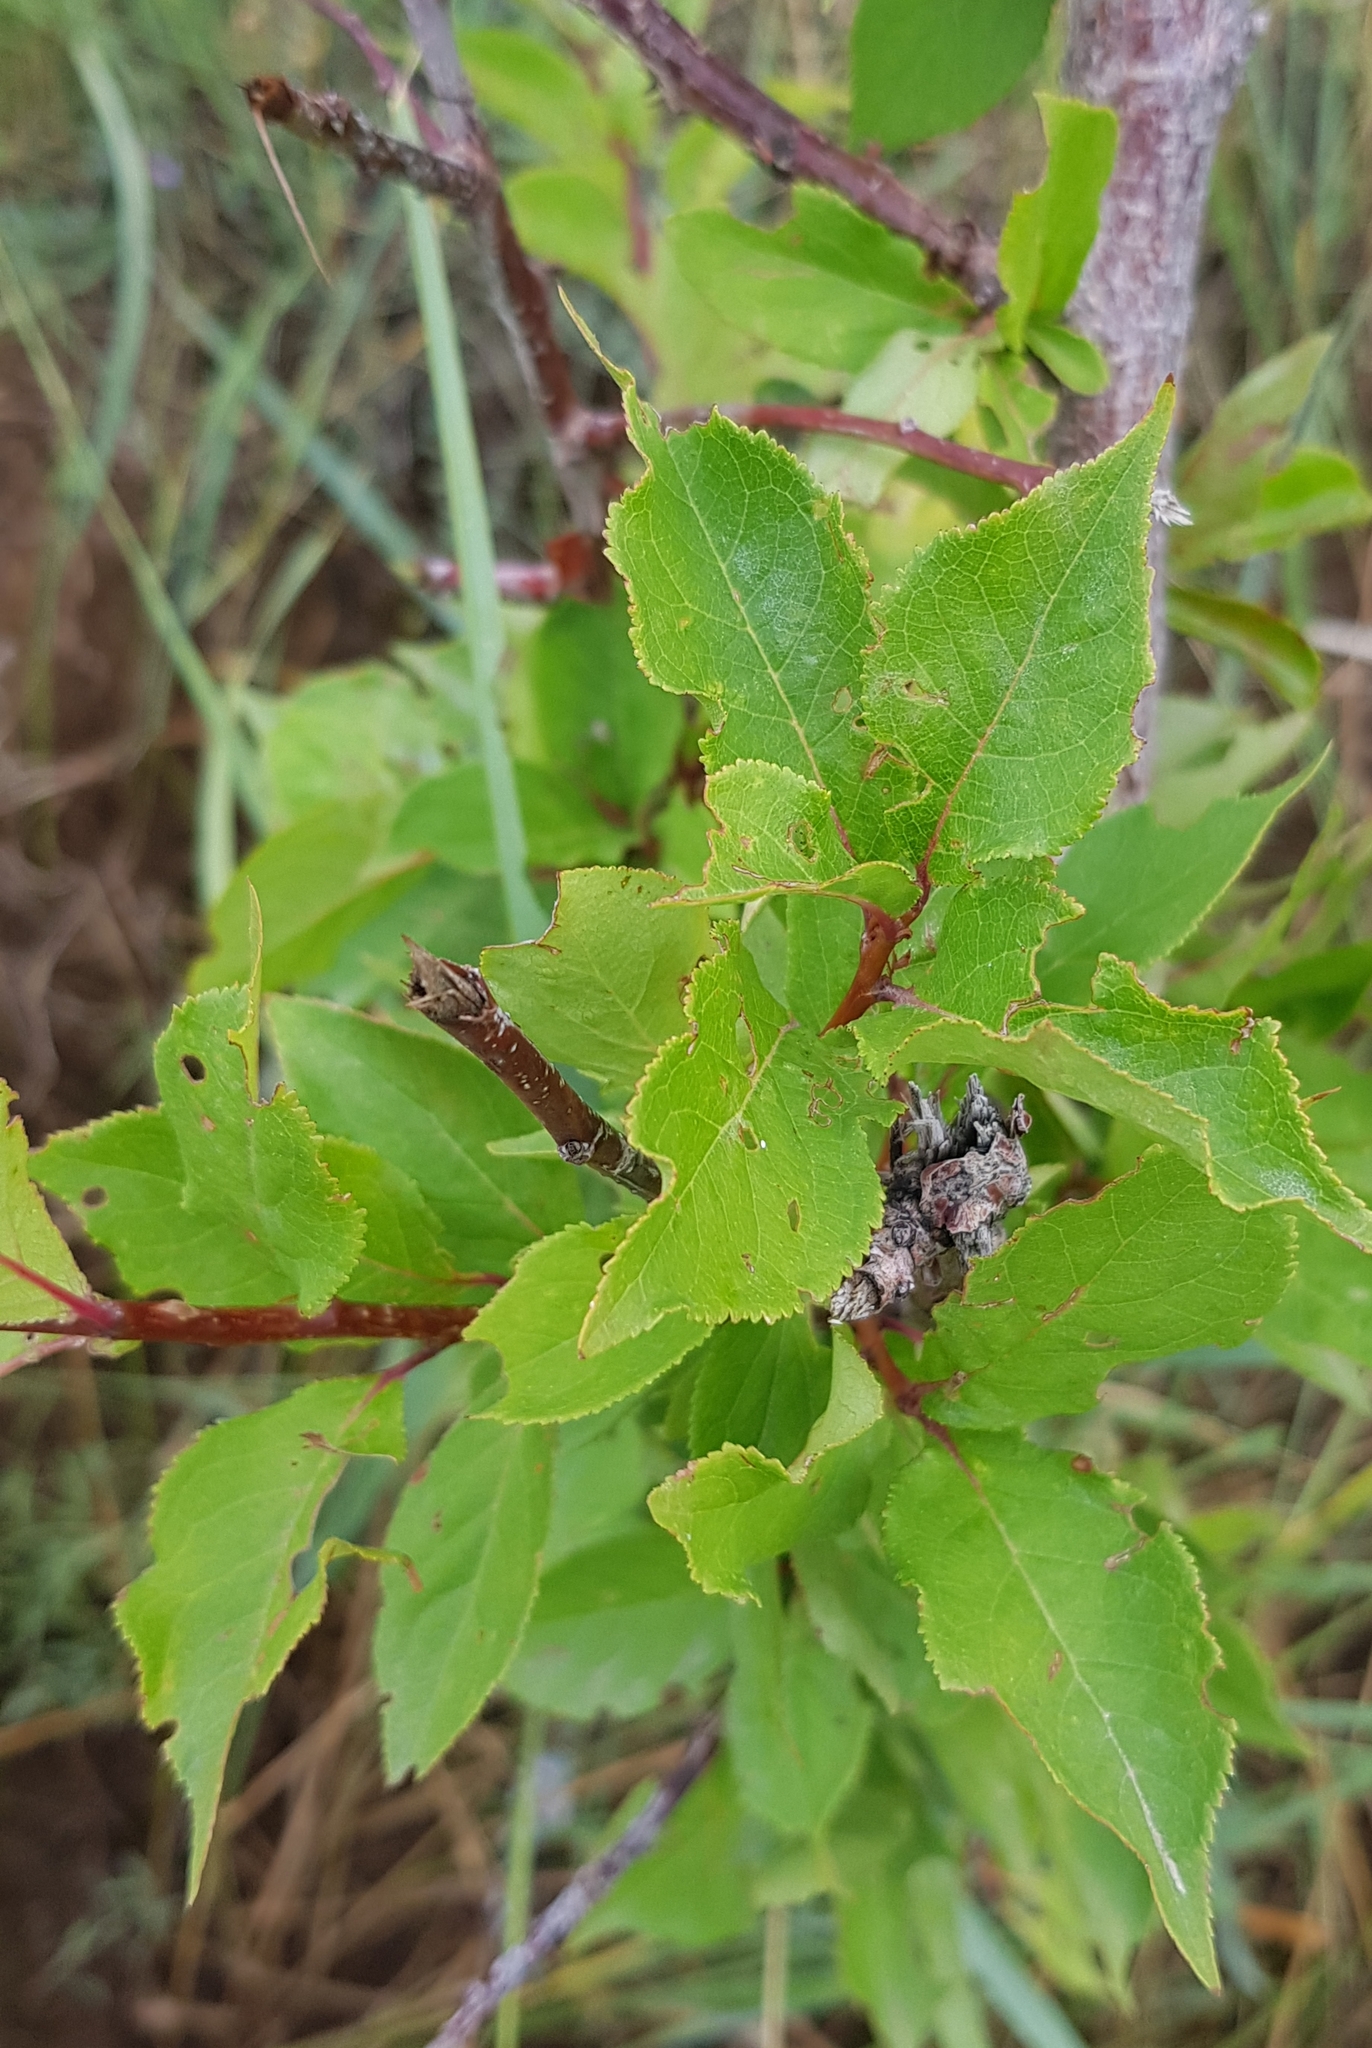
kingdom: Plantae
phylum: Tracheophyta
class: Magnoliopsida
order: Rosales
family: Rosaceae
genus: Prunus
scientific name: Prunus serotina
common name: Black cherry
